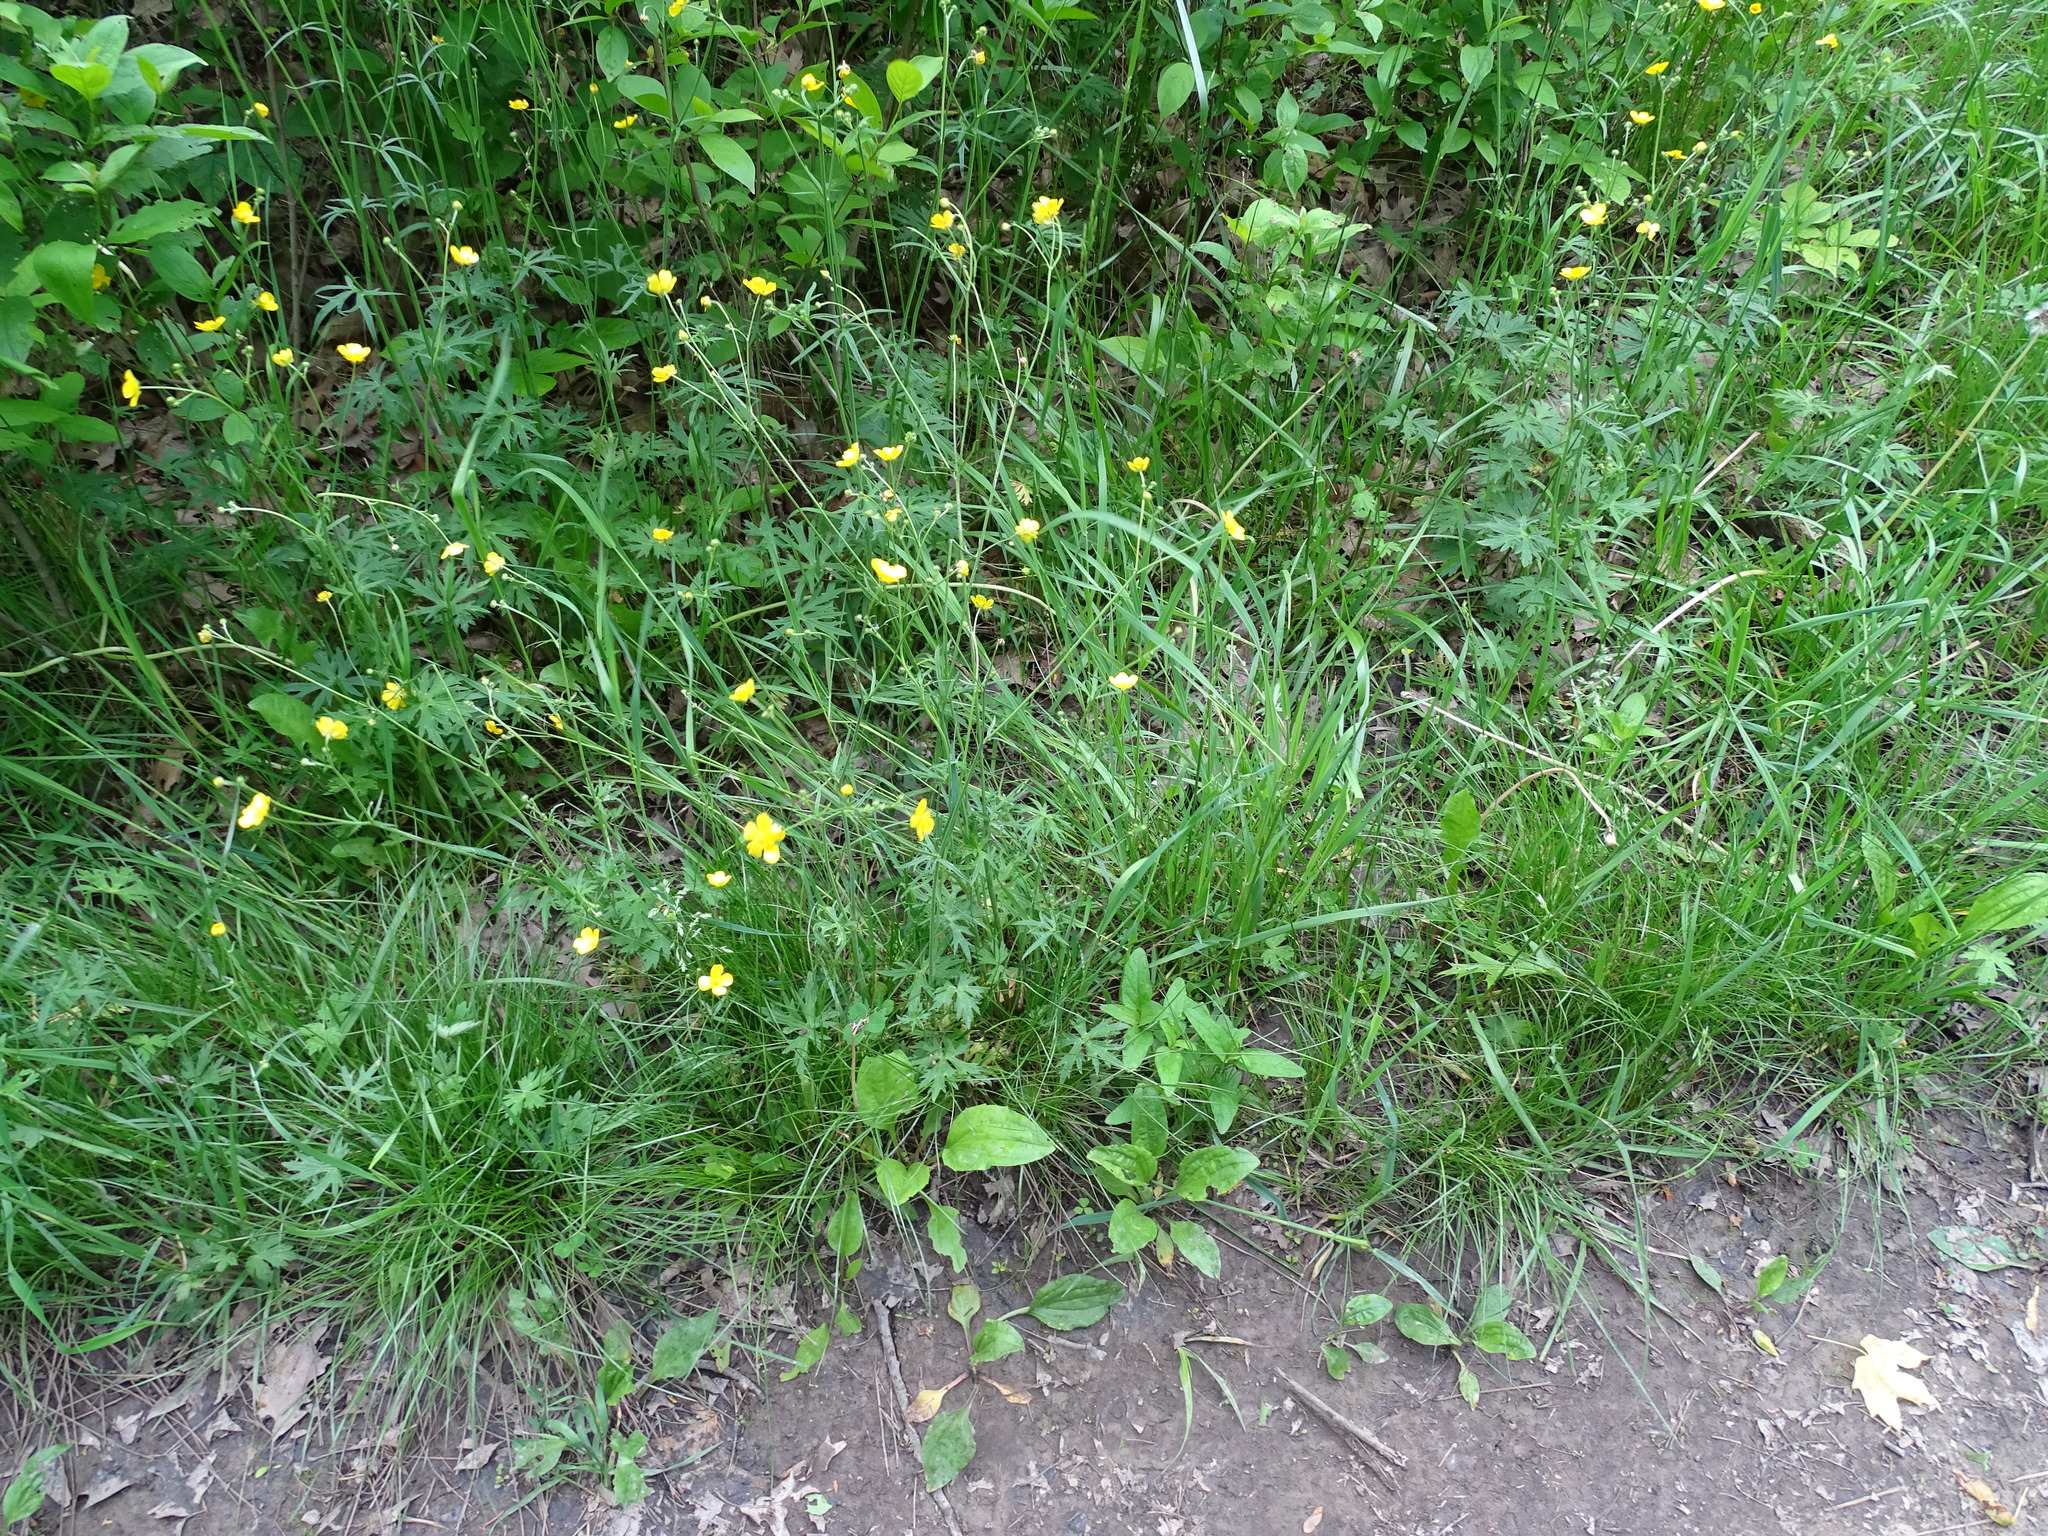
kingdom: Plantae
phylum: Tracheophyta
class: Magnoliopsida
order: Ranunculales
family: Ranunculaceae
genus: Ranunculus
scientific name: Ranunculus acris
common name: Meadow buttercup
